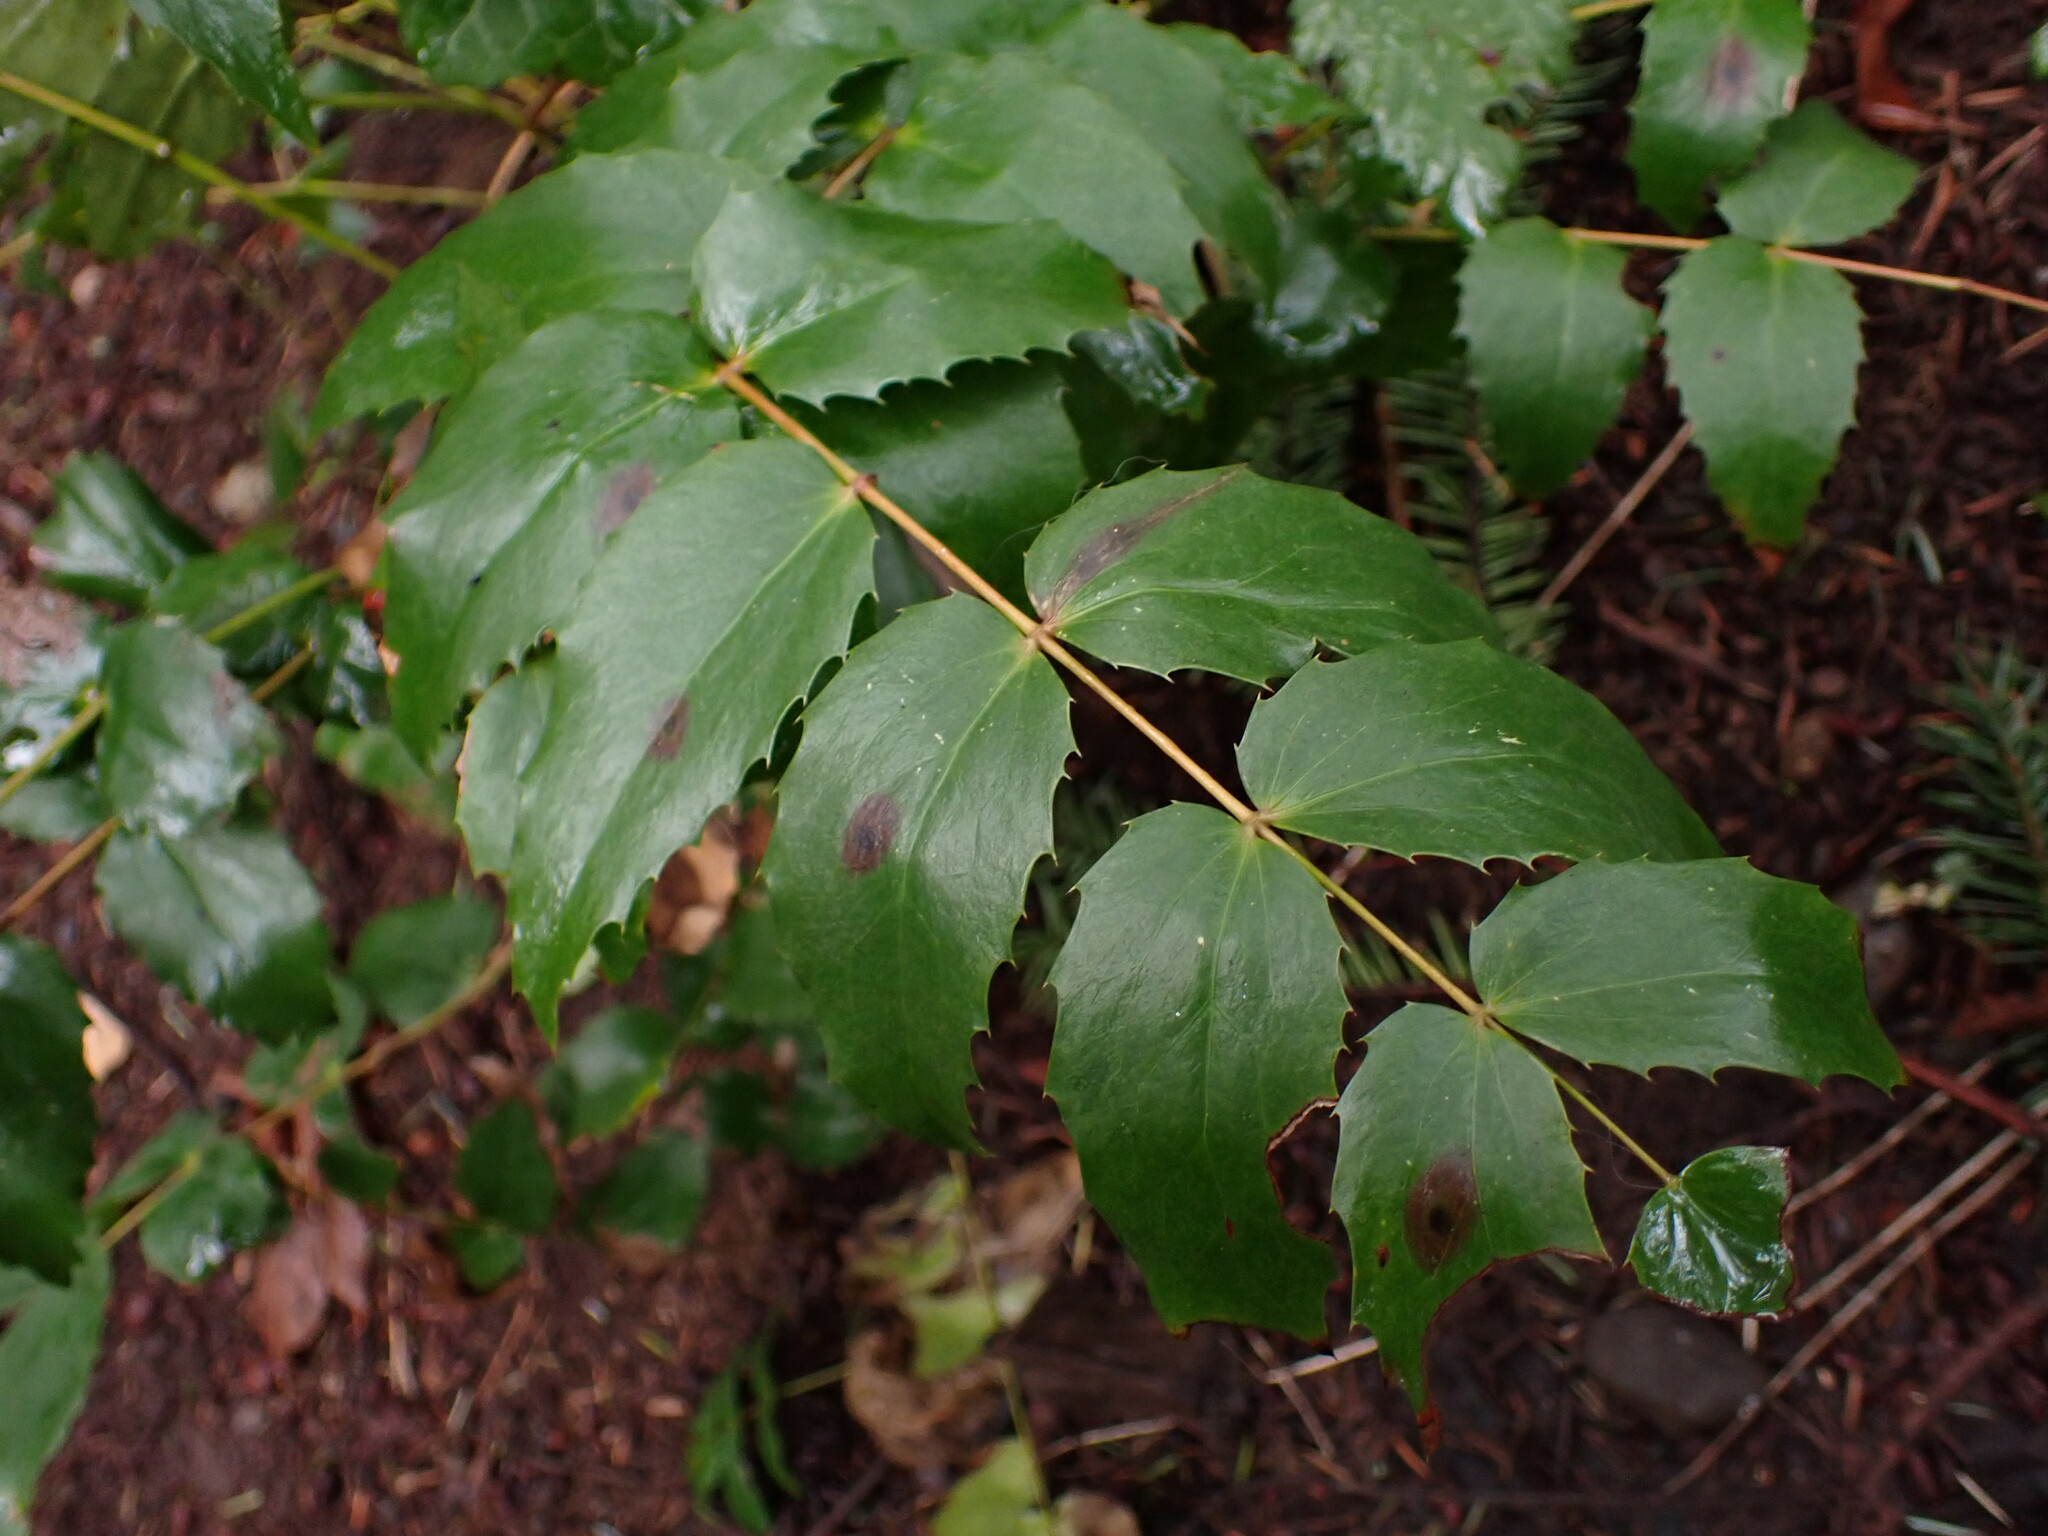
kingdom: Plantae
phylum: Tracheophyta
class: Magnoliopsida
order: Ranunculales
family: Berberidaceae
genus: Mahonia
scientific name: Mahonia nervosa
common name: Cascade oregon-grape
